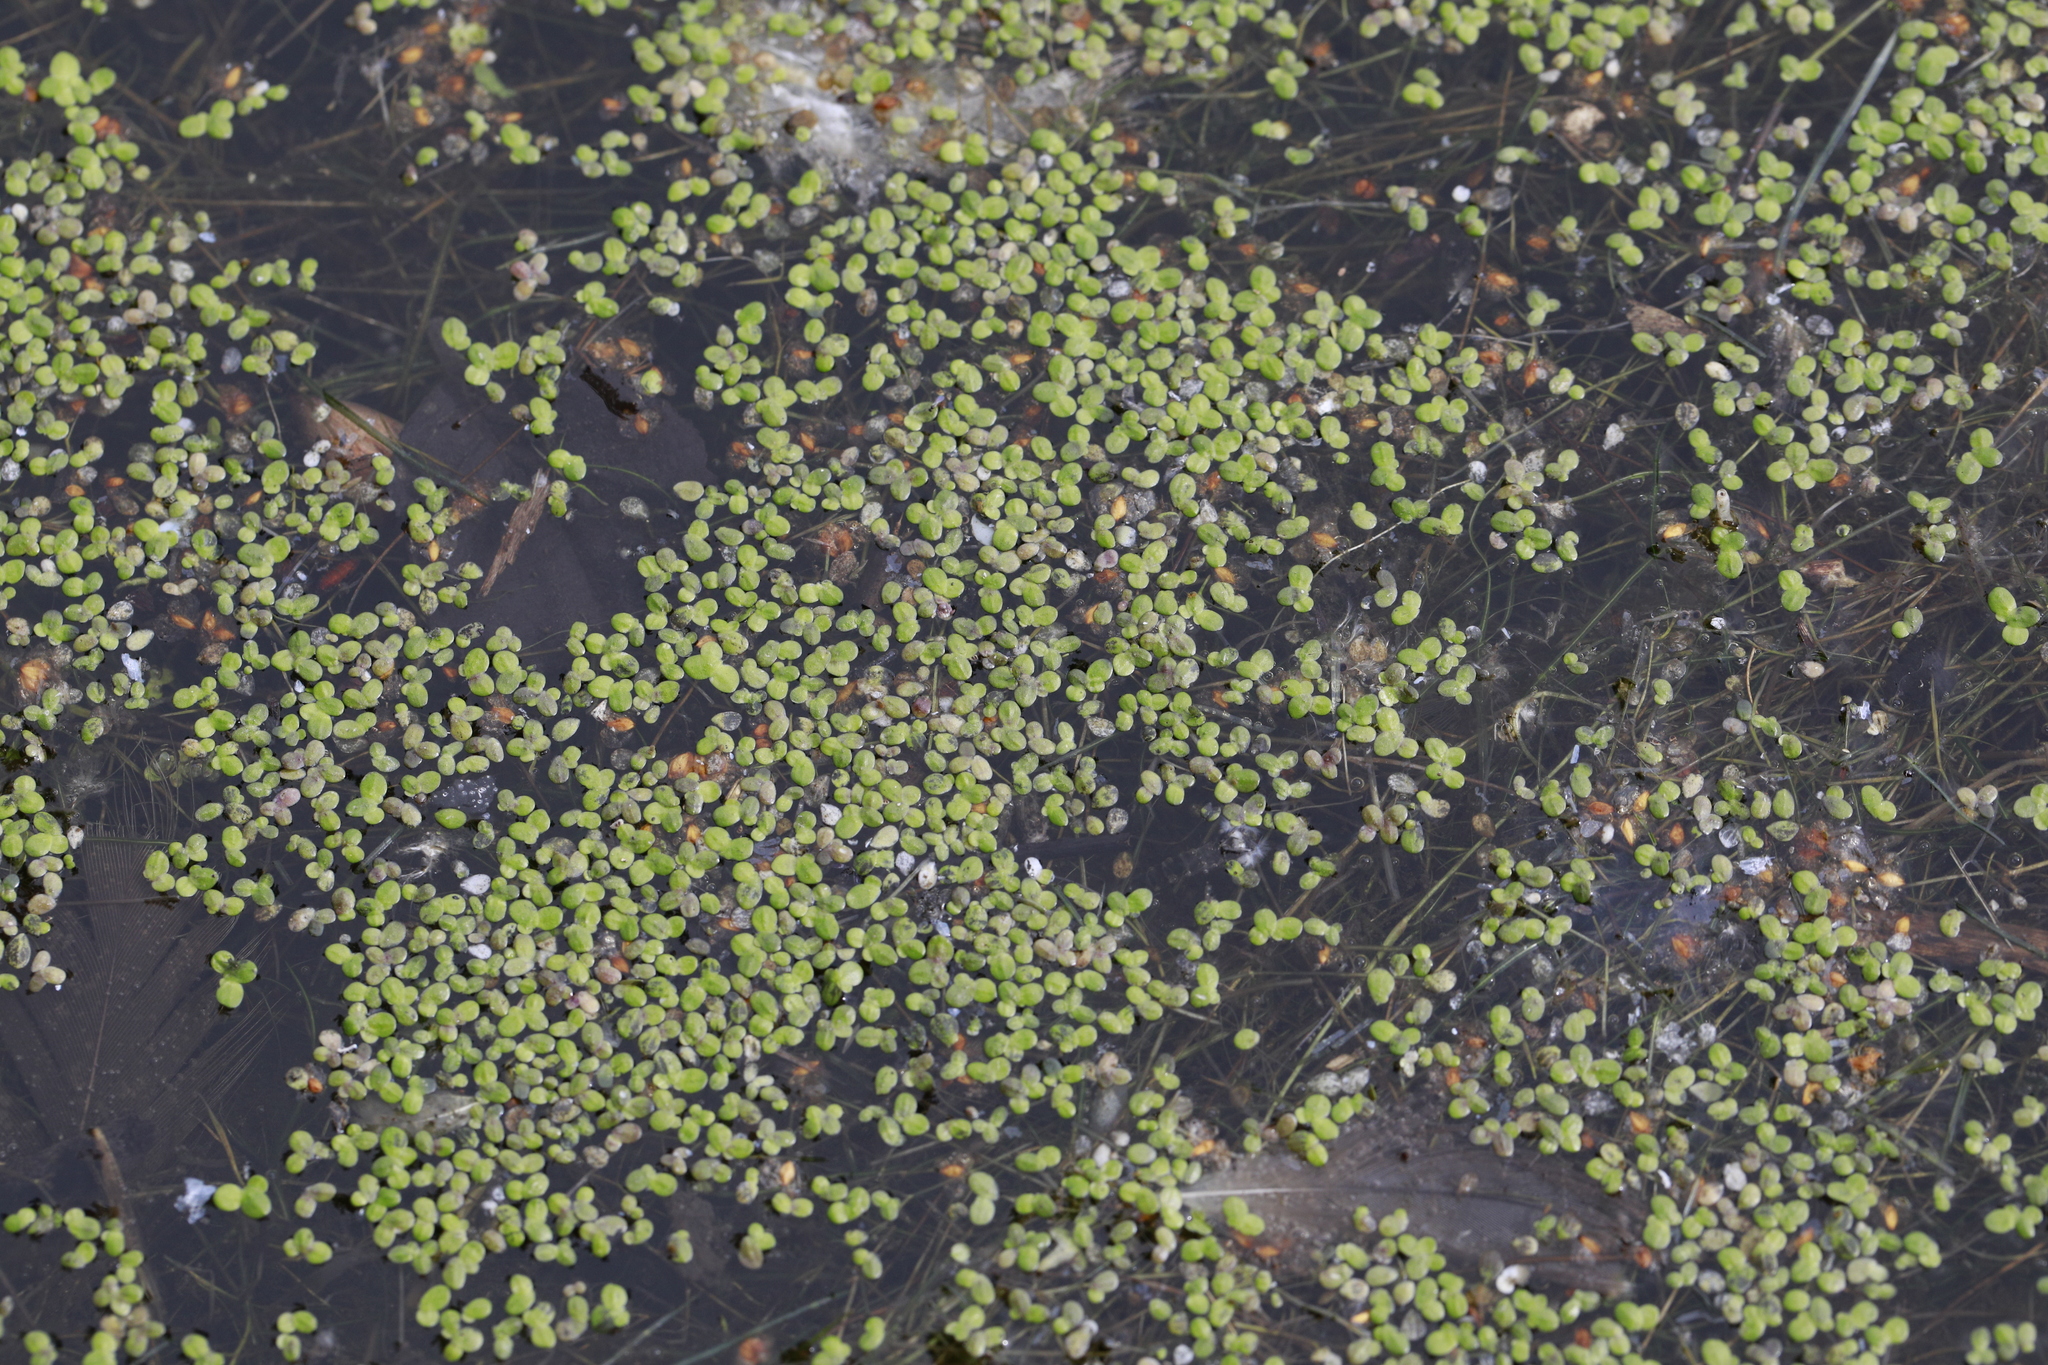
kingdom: Plantae
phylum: Tracheophyta
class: Liliopsida
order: Alismatales
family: Araceae
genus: Lemna
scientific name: Lemna minor
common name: Common duckweed
